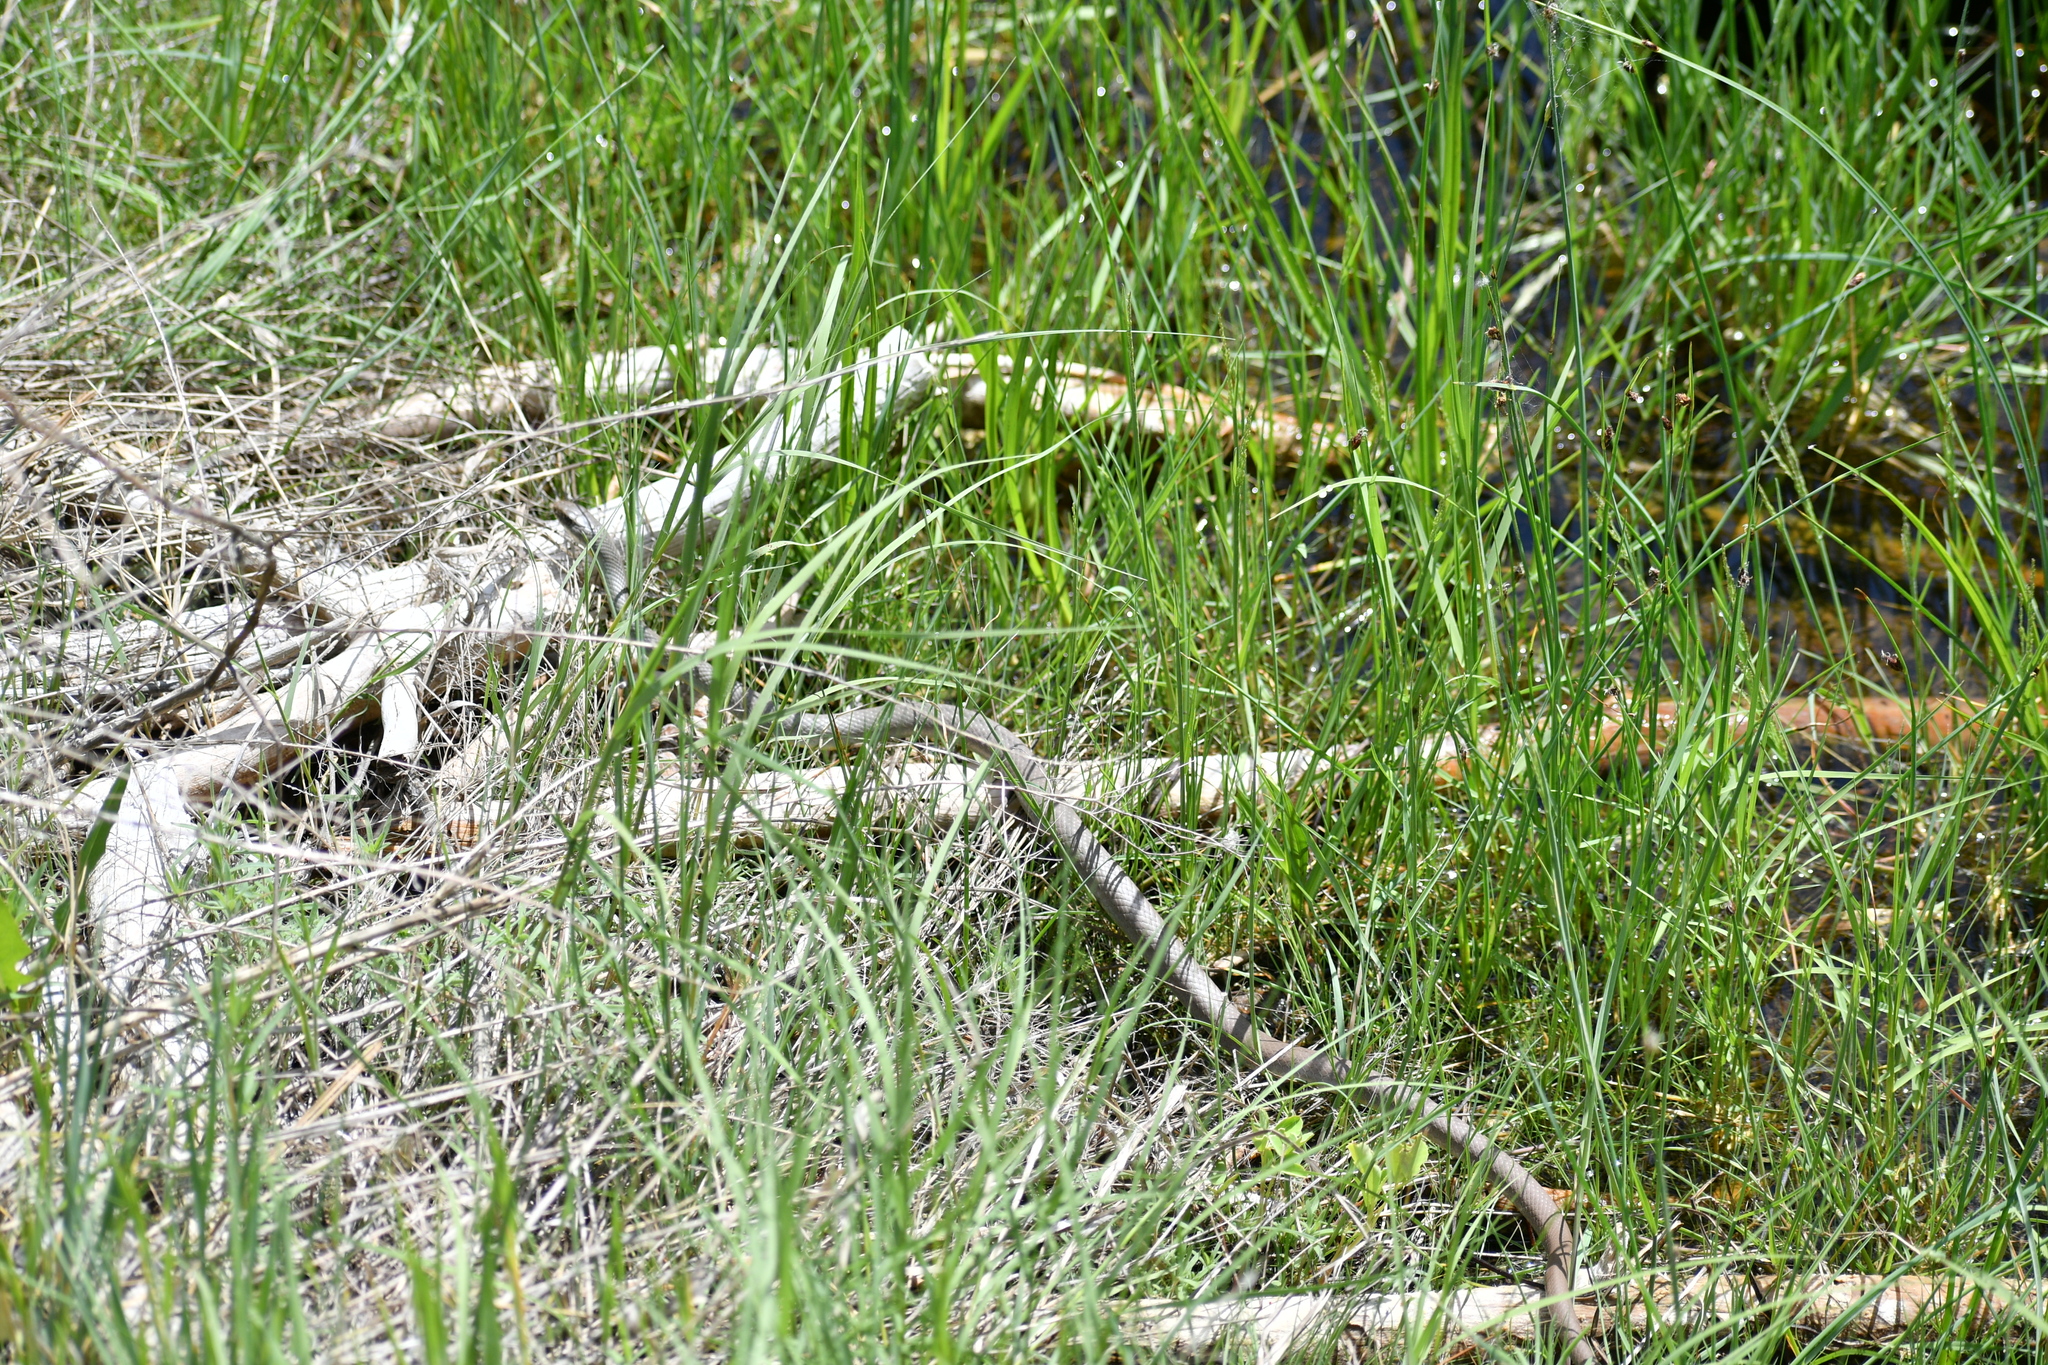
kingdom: Animalia
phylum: Chordata
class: Squamata
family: Colubridae
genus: Coluber
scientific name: Coluber constrictor
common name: Eastern racer
